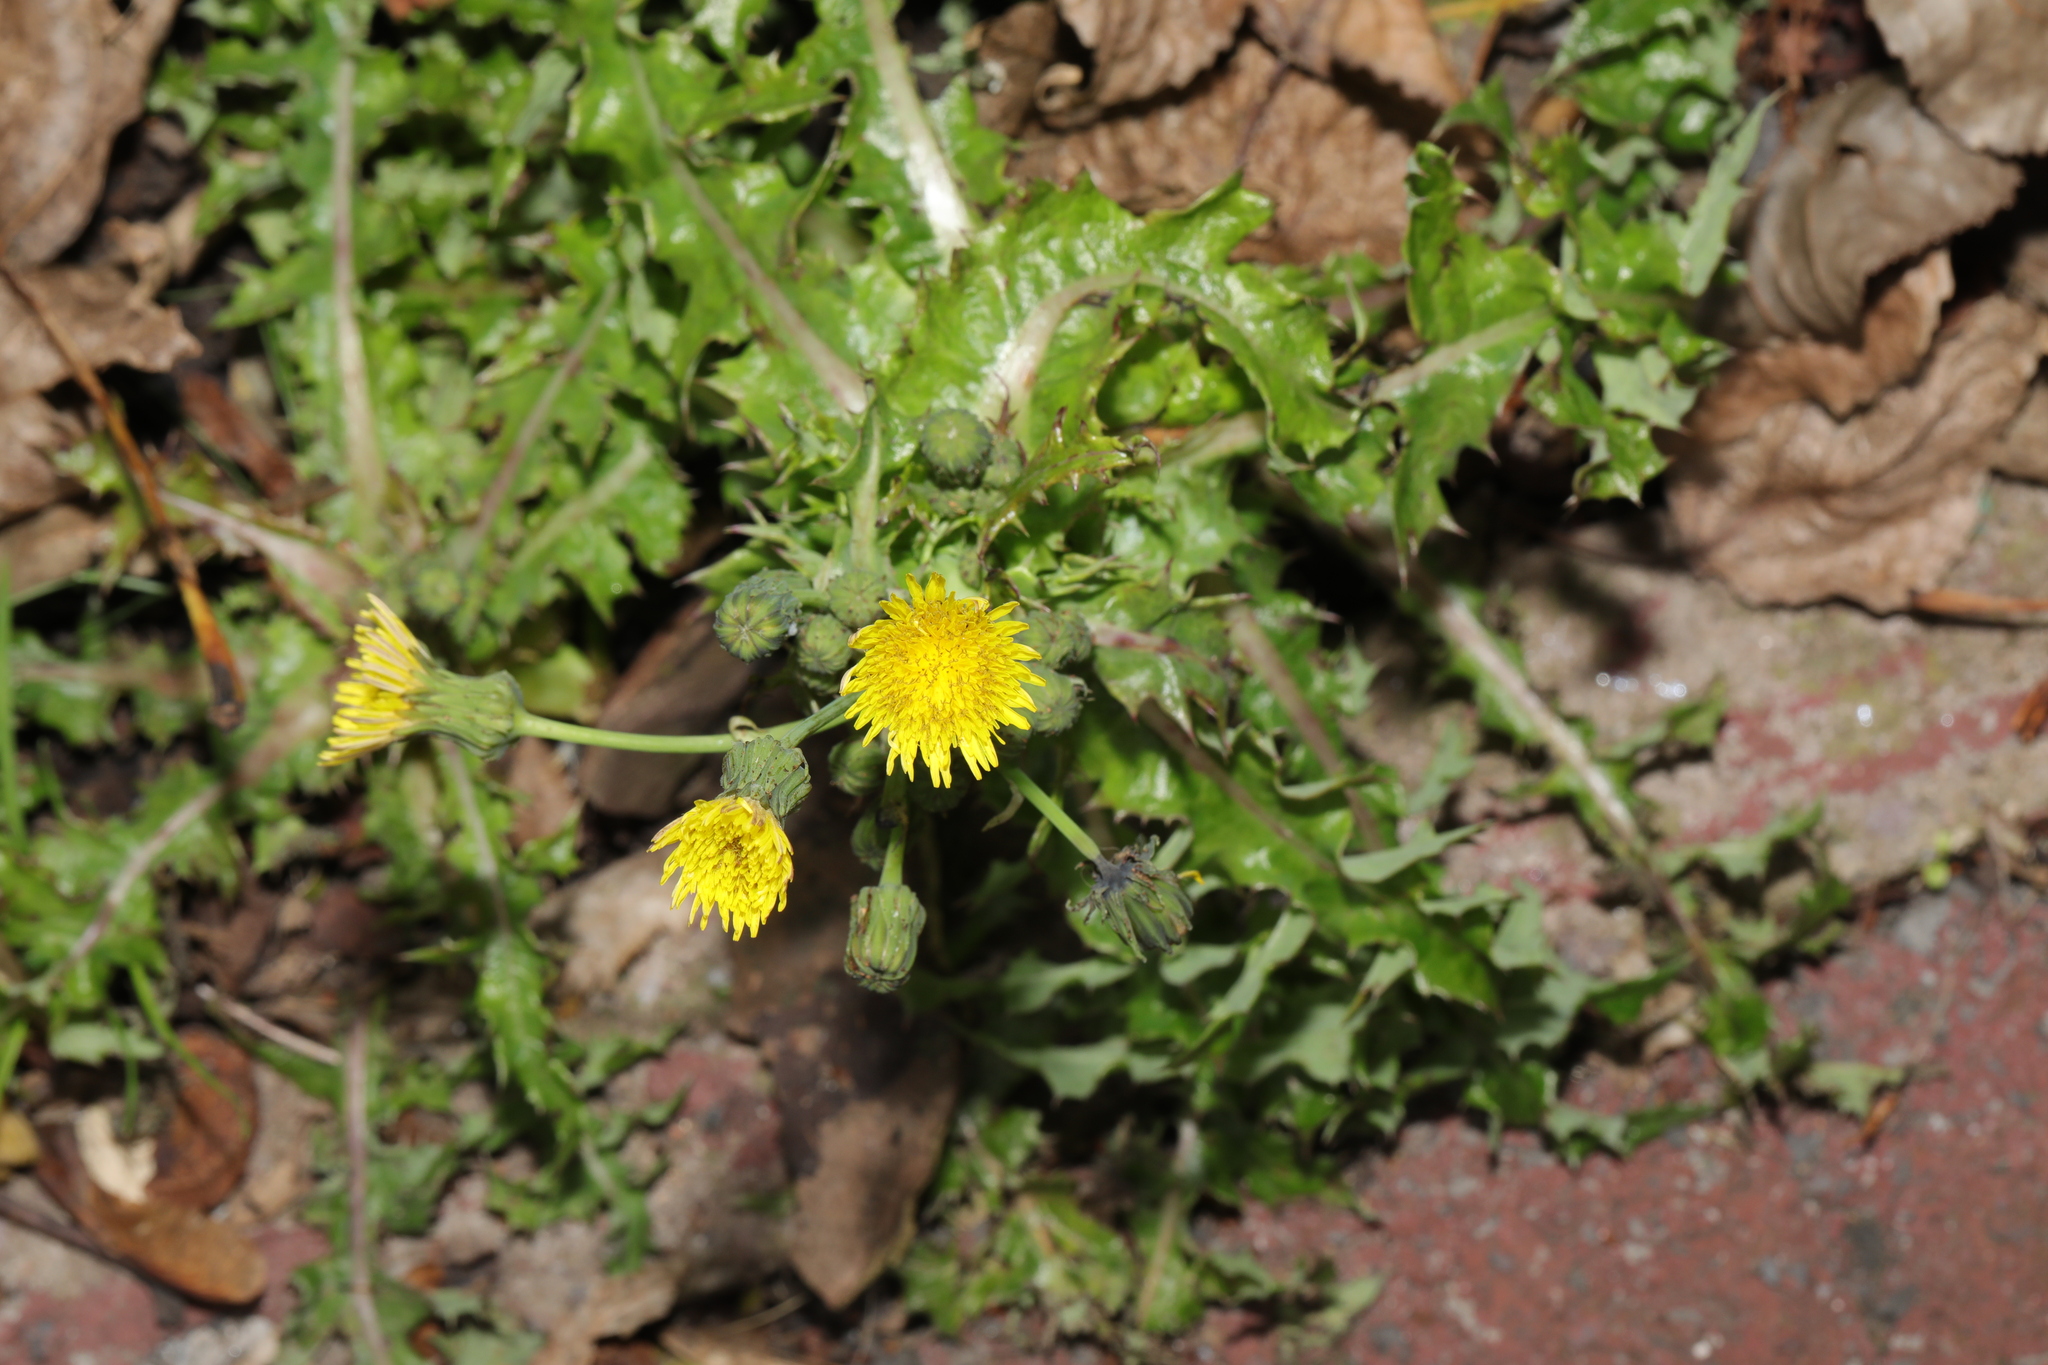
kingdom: Plantae
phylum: Tracheophyta
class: Magnoliopsida
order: Asterales
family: Asteraceae
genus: Sonchus
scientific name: Sonchus asper
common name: Prickly sow-thistle
